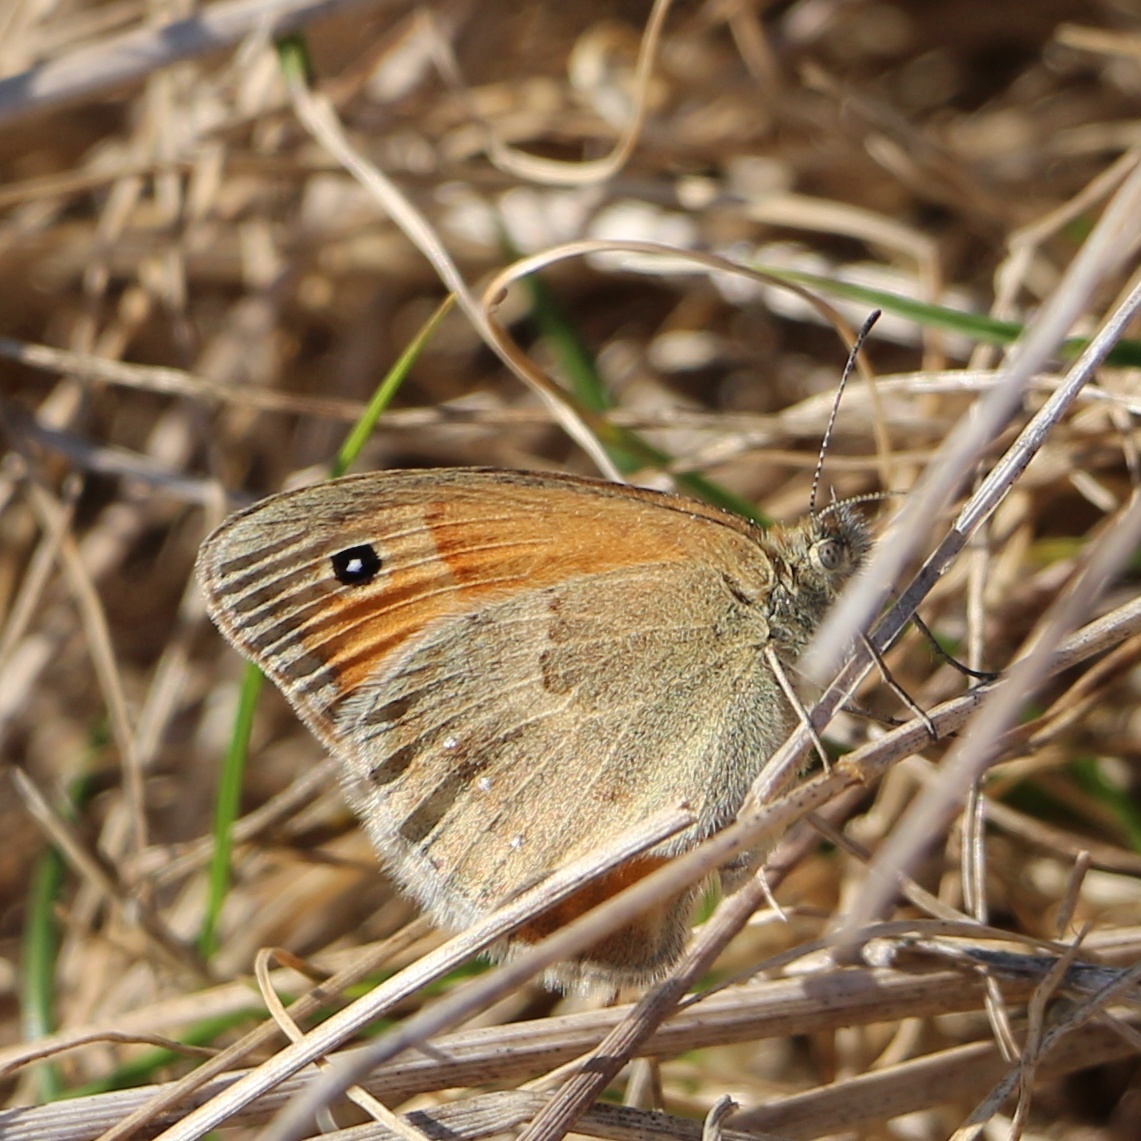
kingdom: Animalia
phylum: Arthropoda
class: Insecta
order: Lepidoptera
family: Nymphalidae
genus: Coenonympha
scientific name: Coenonympha pamphilus
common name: Small heath
